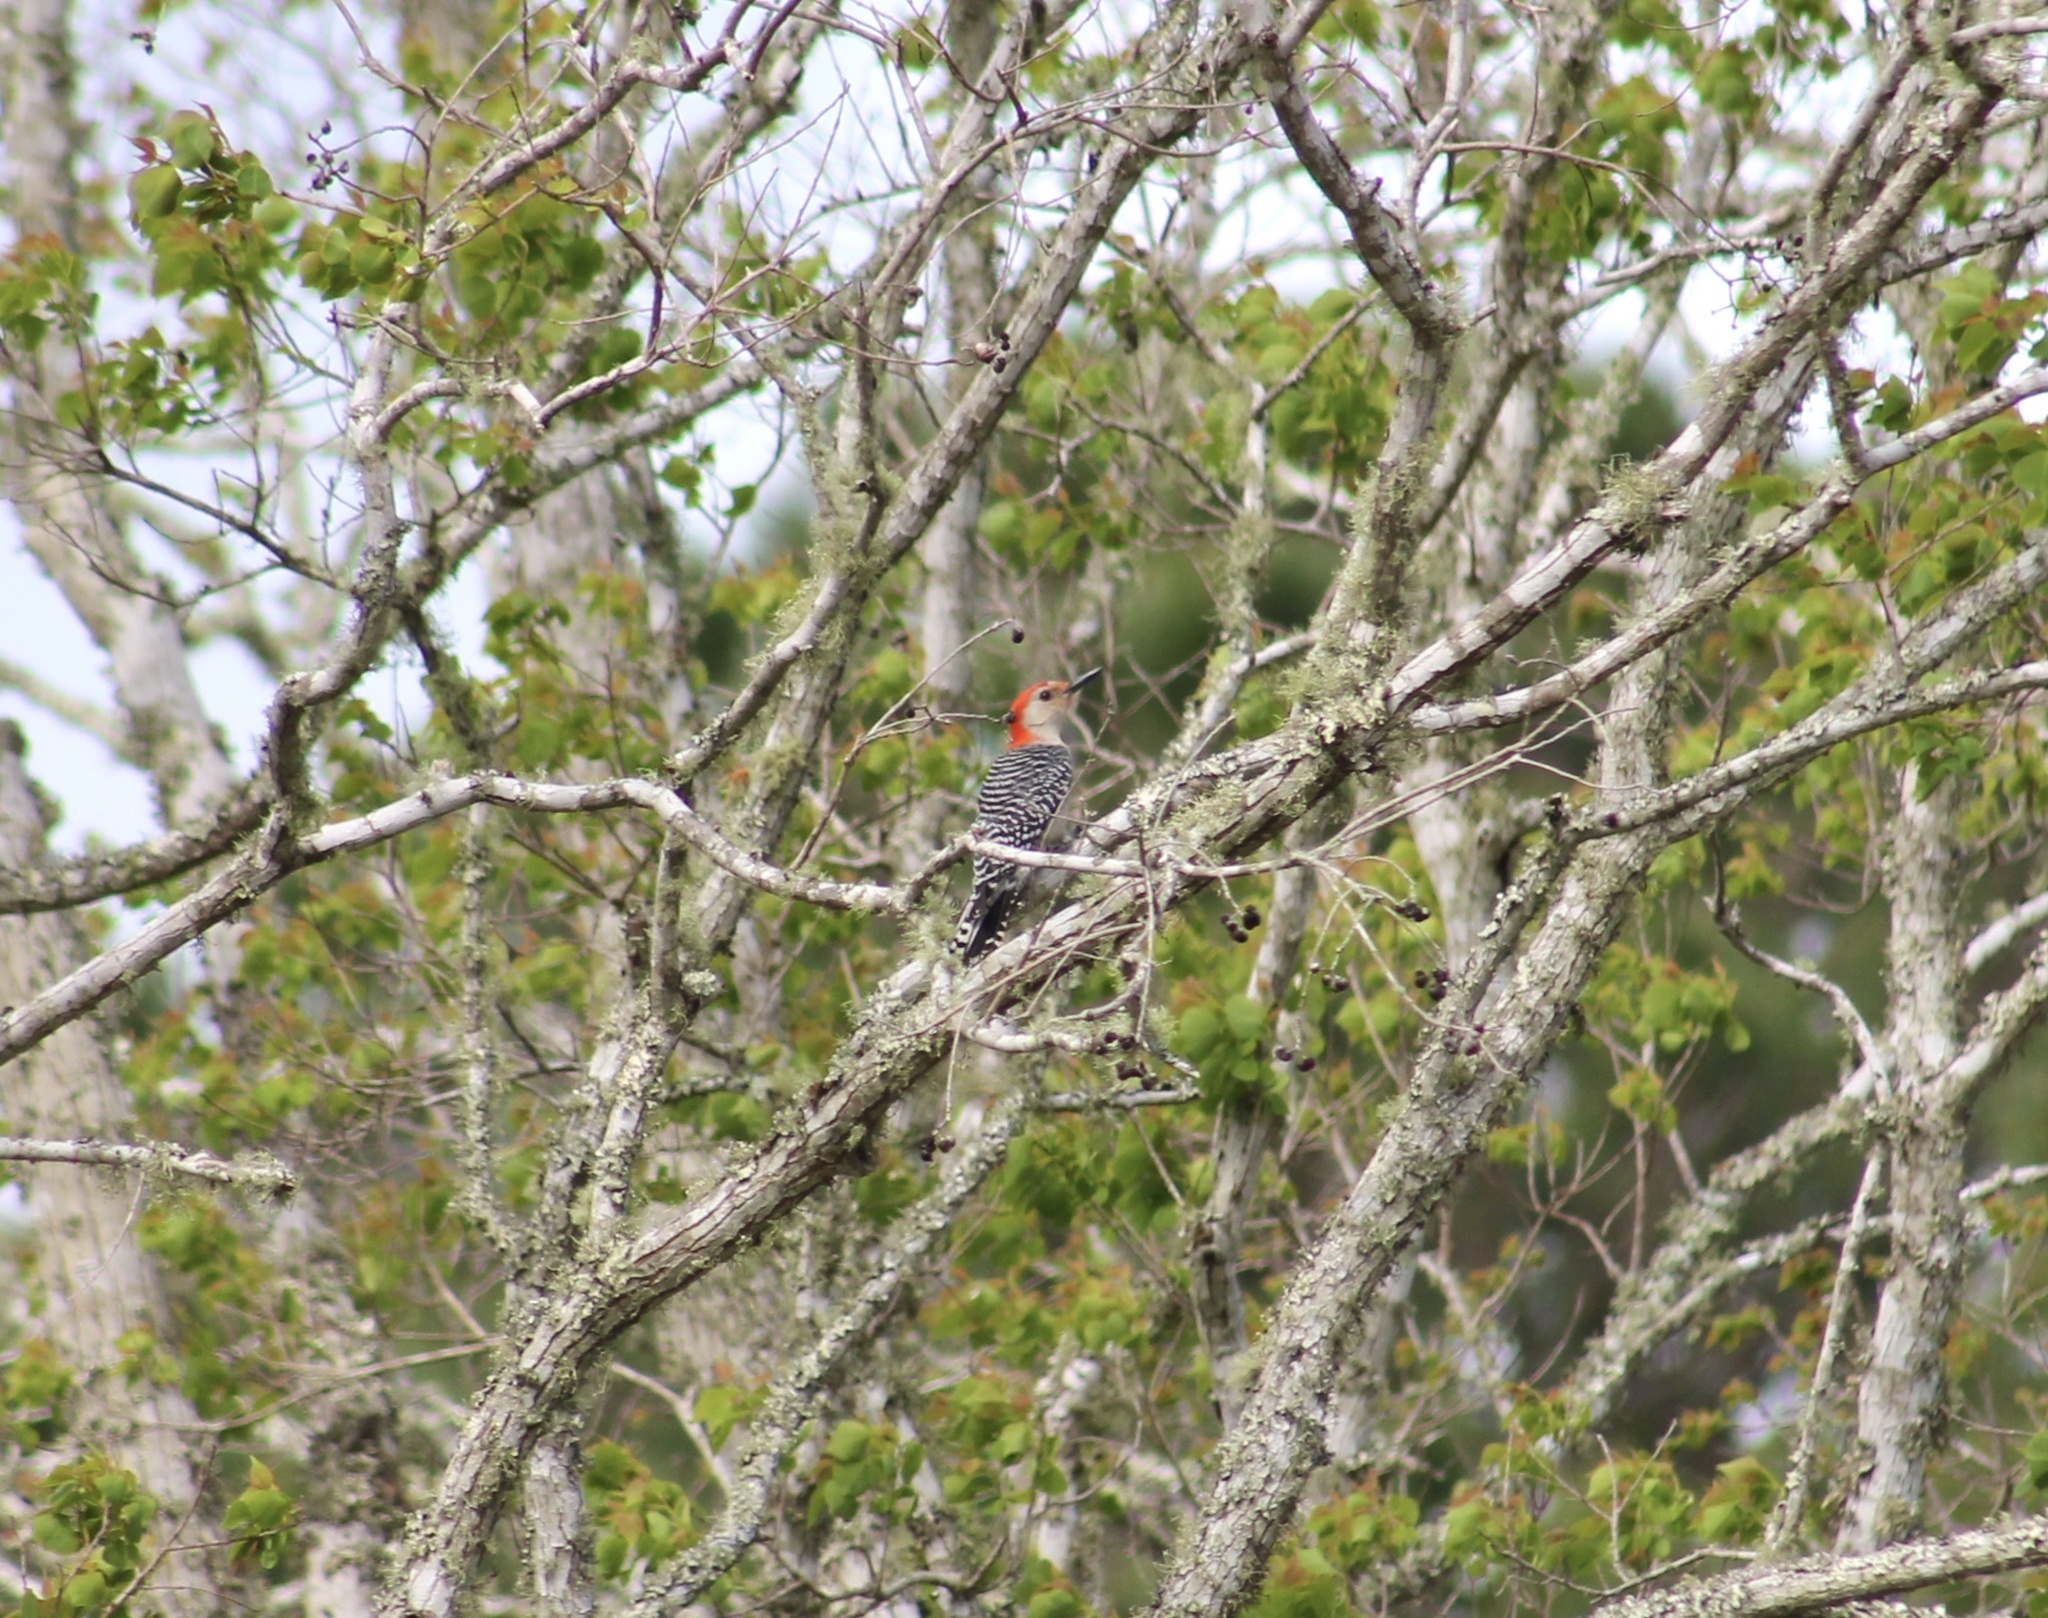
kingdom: Animalia
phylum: Chordata
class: Aves
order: Piciformes
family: Picidae
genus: Melanerpes
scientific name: Melanerpes carolinus
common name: Red-bellied woodpecker
